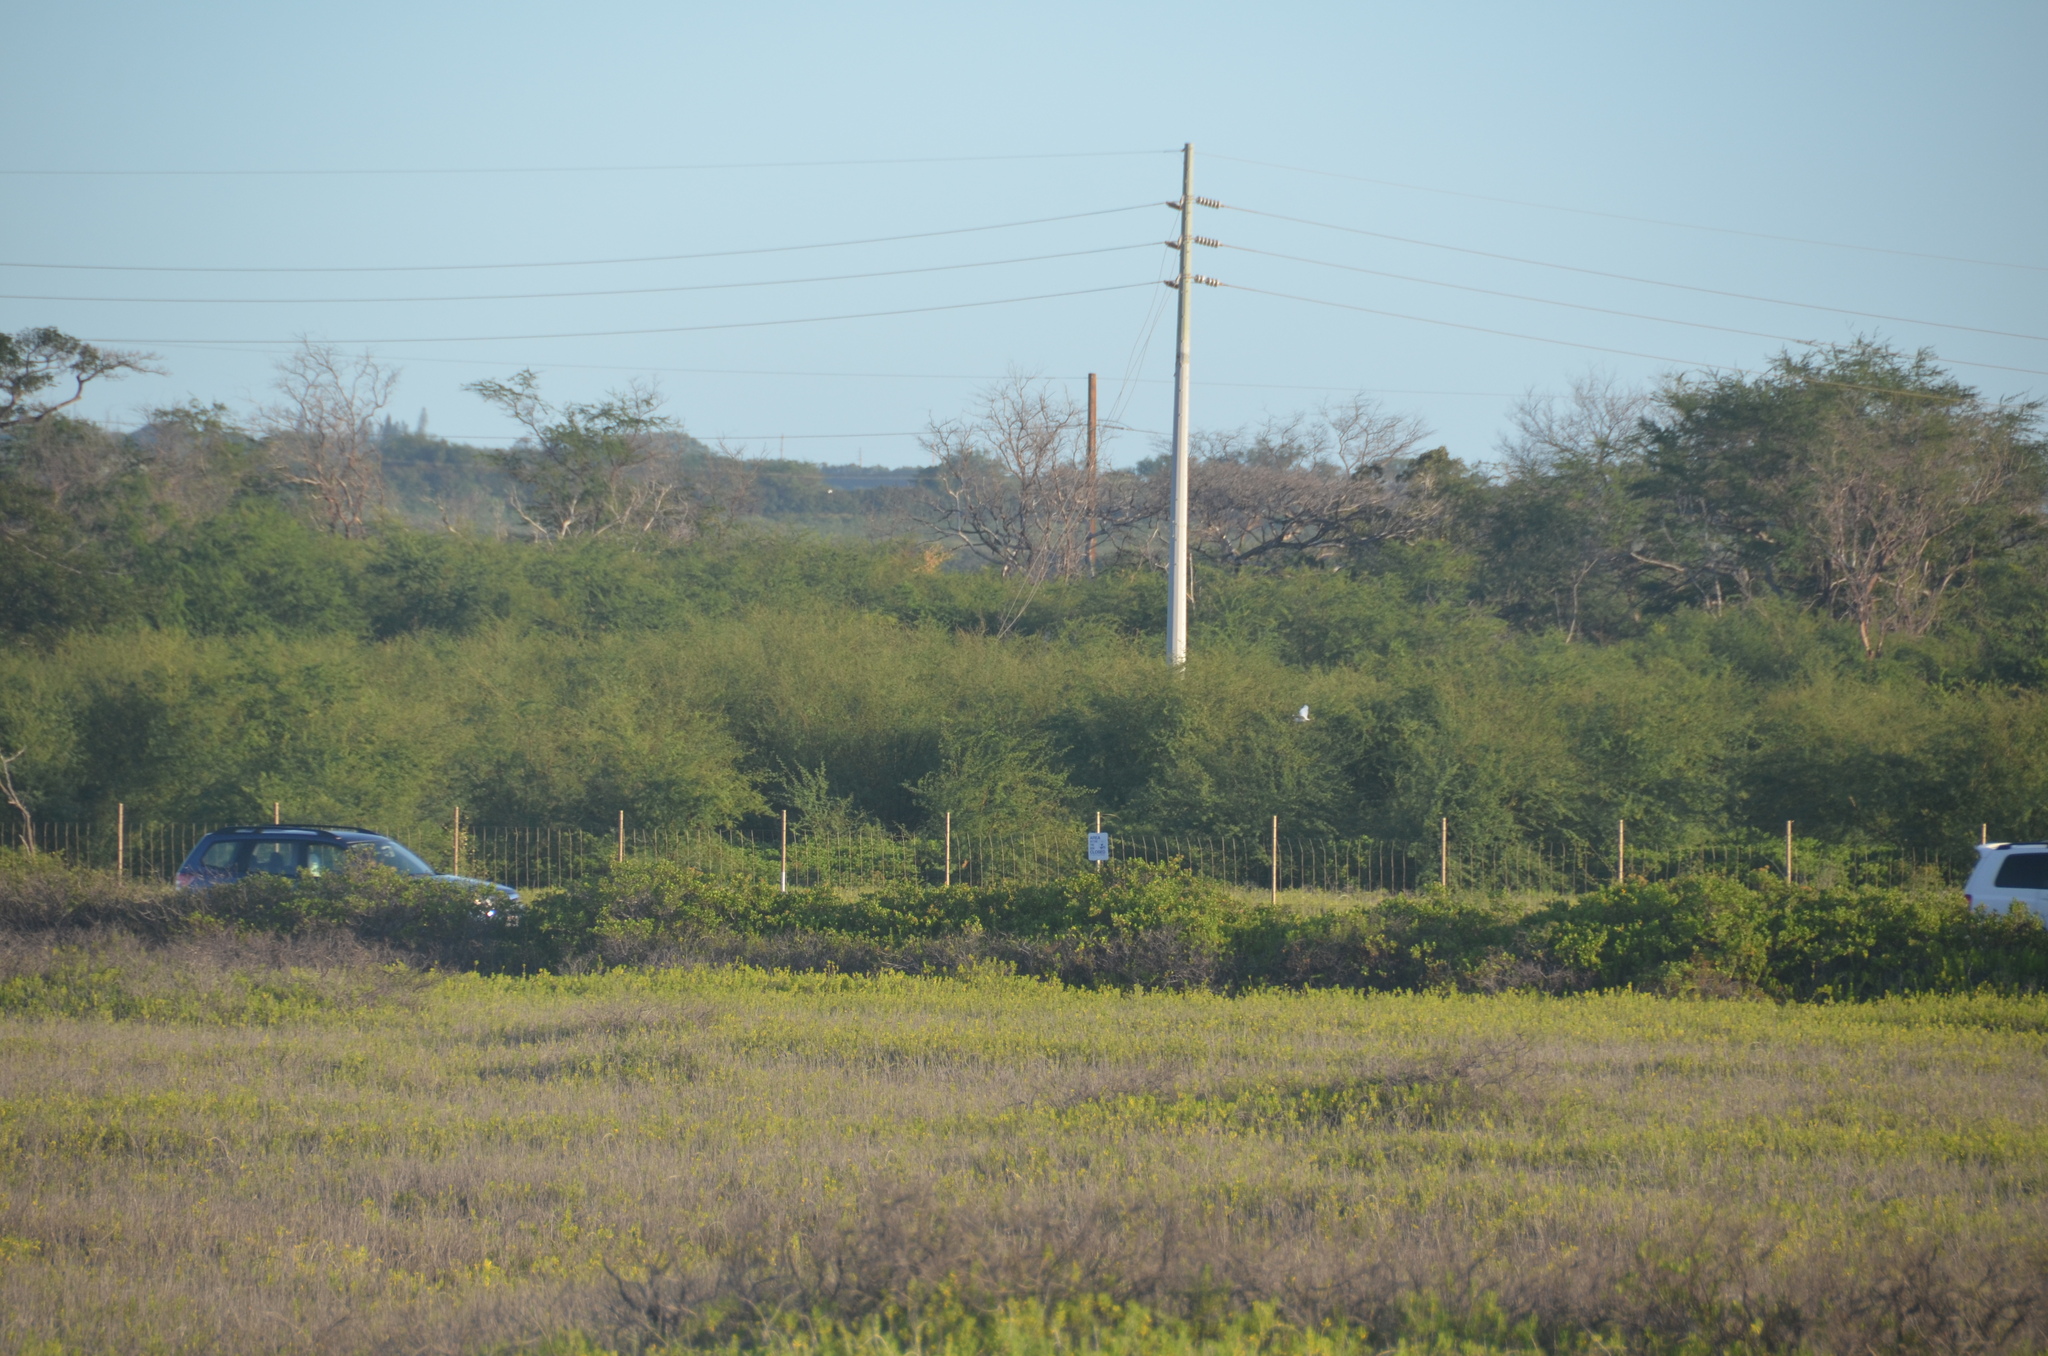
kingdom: Animalia
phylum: Chordata
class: Aves
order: Pelecaniformes
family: Ardeidae
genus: Bubulcus
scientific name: Bubulcus ibis
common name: Cattle egret
